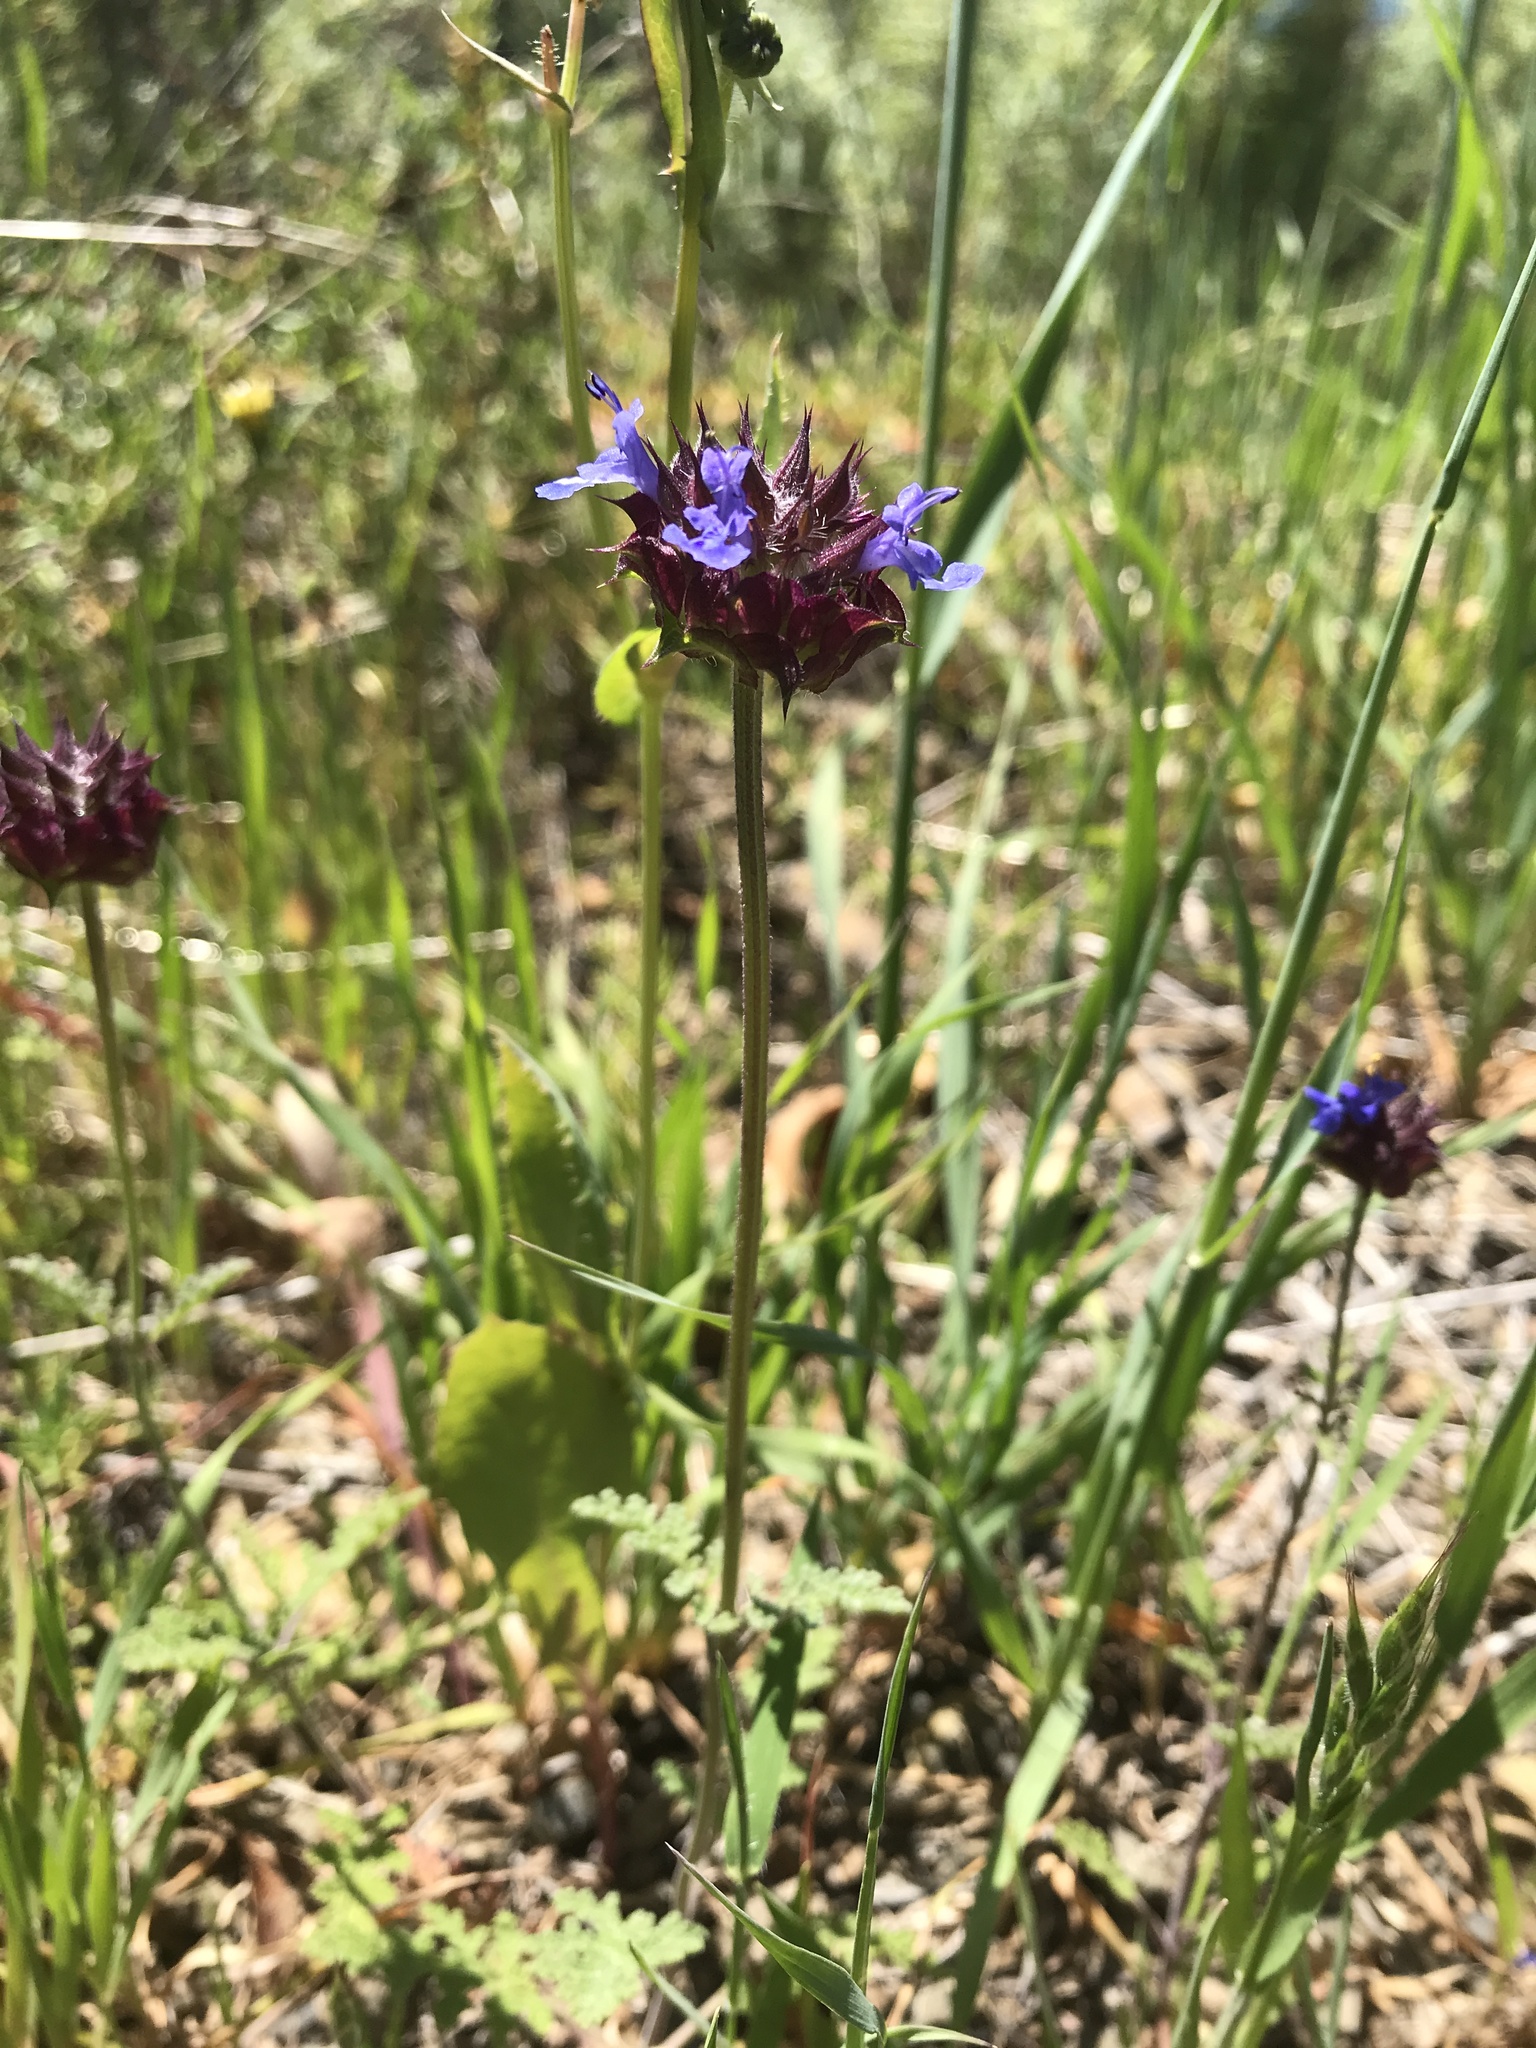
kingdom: Plantae
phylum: Tracheophyta
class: Magnoliopsida
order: Lamiales
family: Lamiaceae
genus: Salvia
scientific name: Salvia columbariae
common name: Chia
